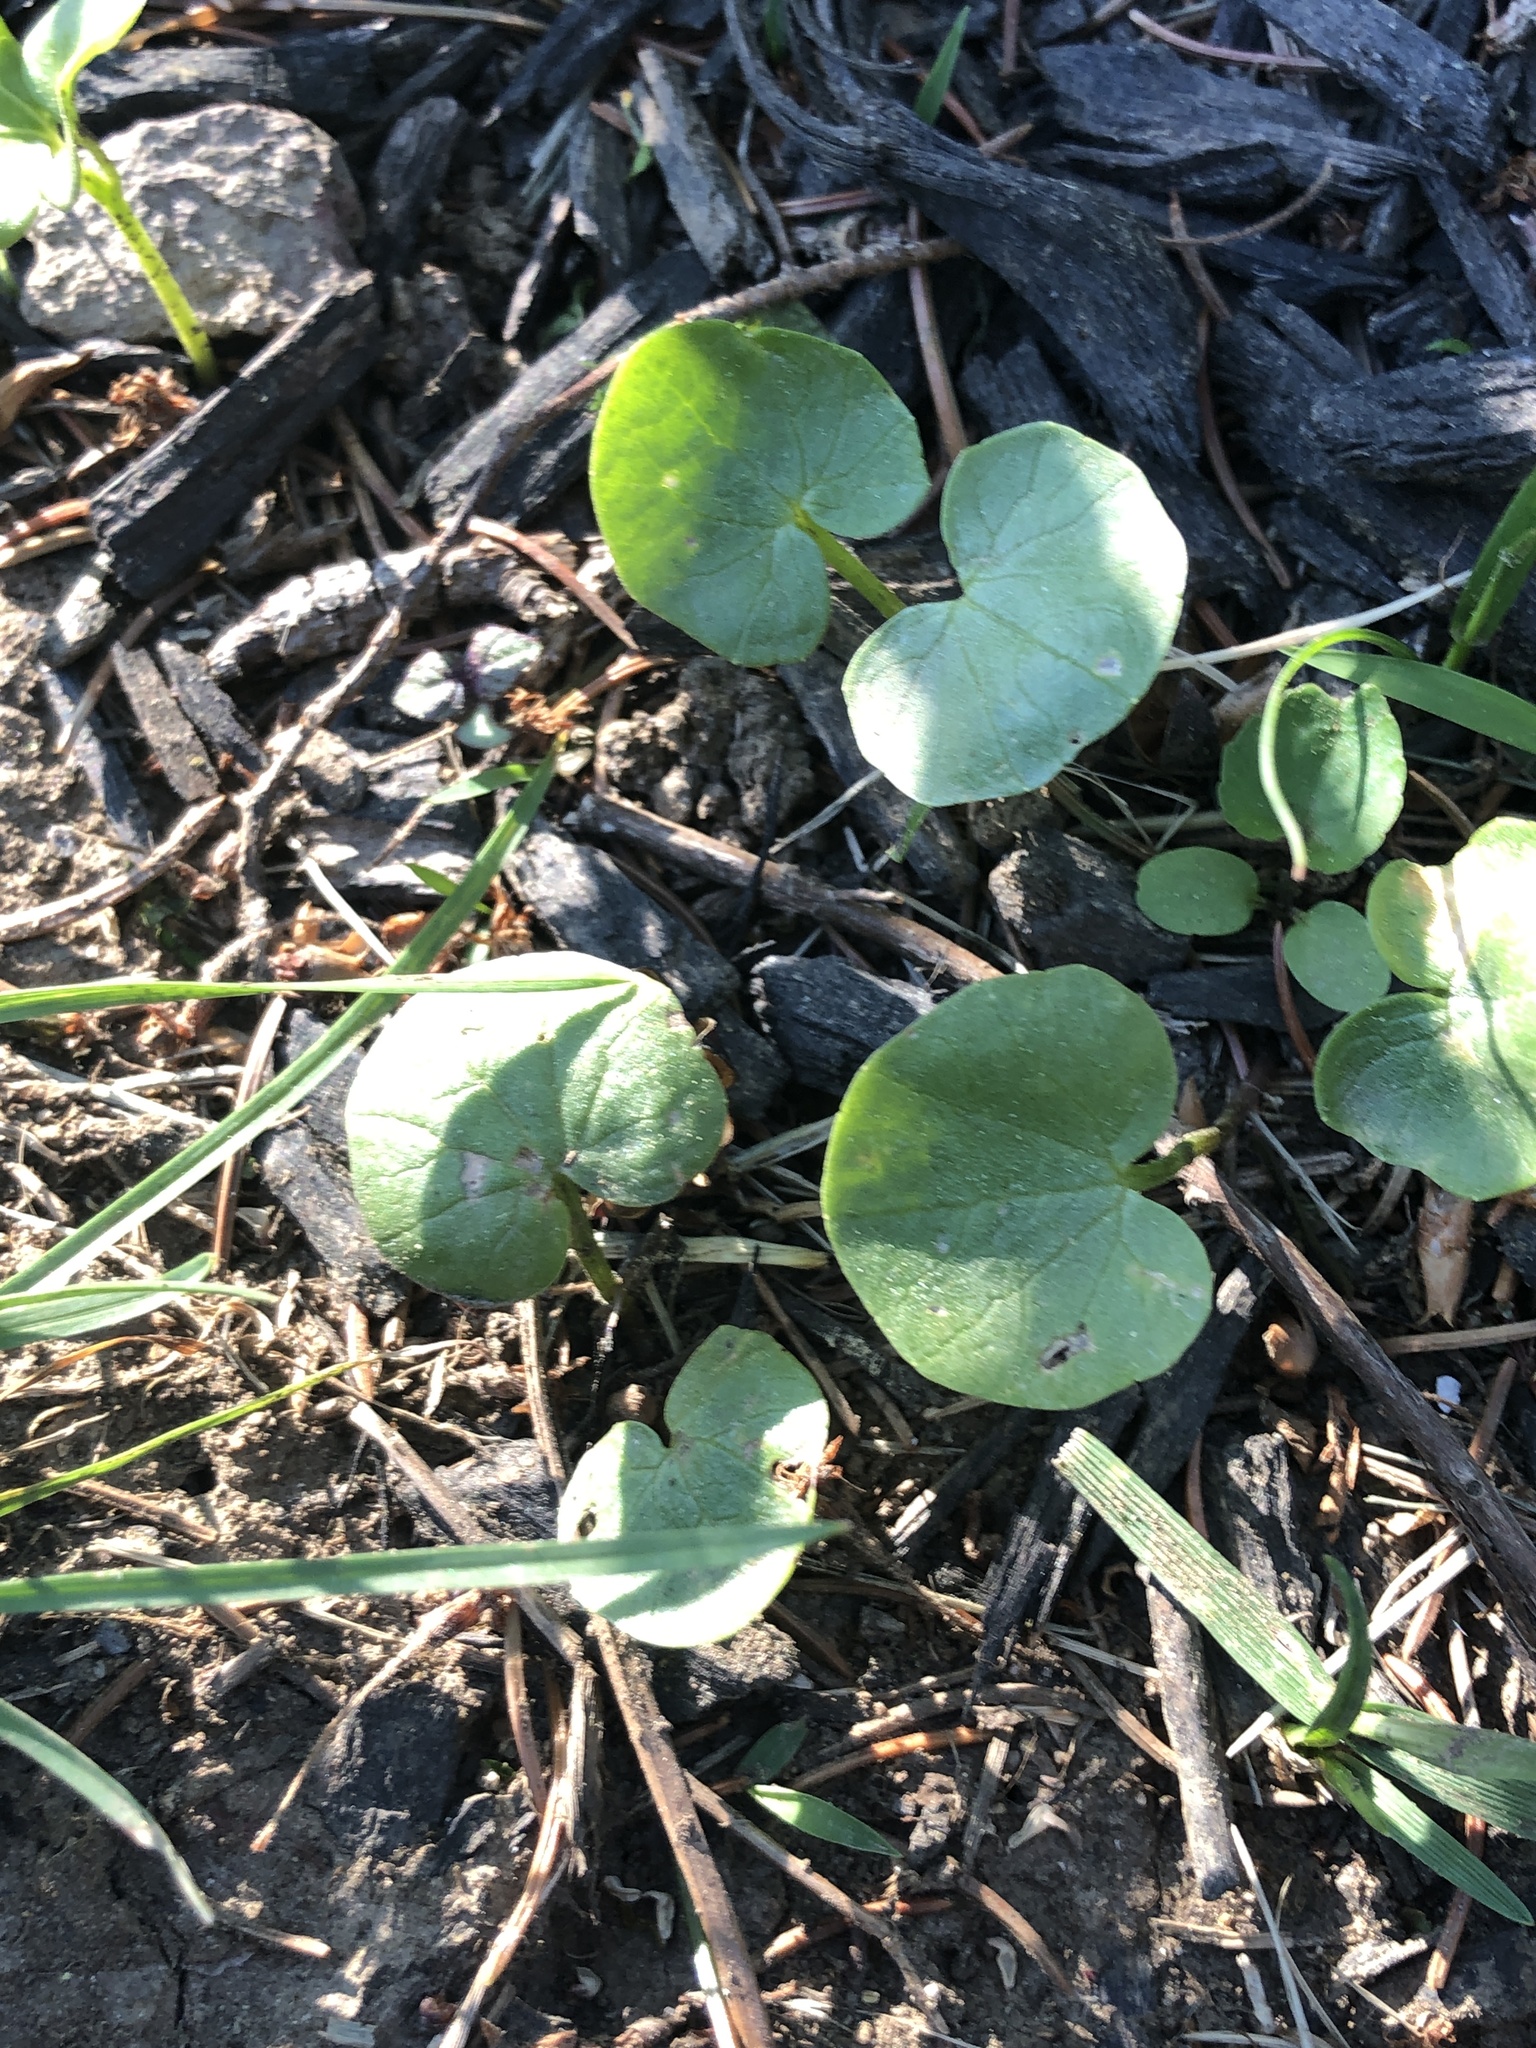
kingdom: Plantae
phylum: Tracheophyta
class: Magnoliopsida
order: Ranunculales
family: Ranunculaceae
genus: Ficaria
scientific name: Ficaria verna
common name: Lesser celandine
